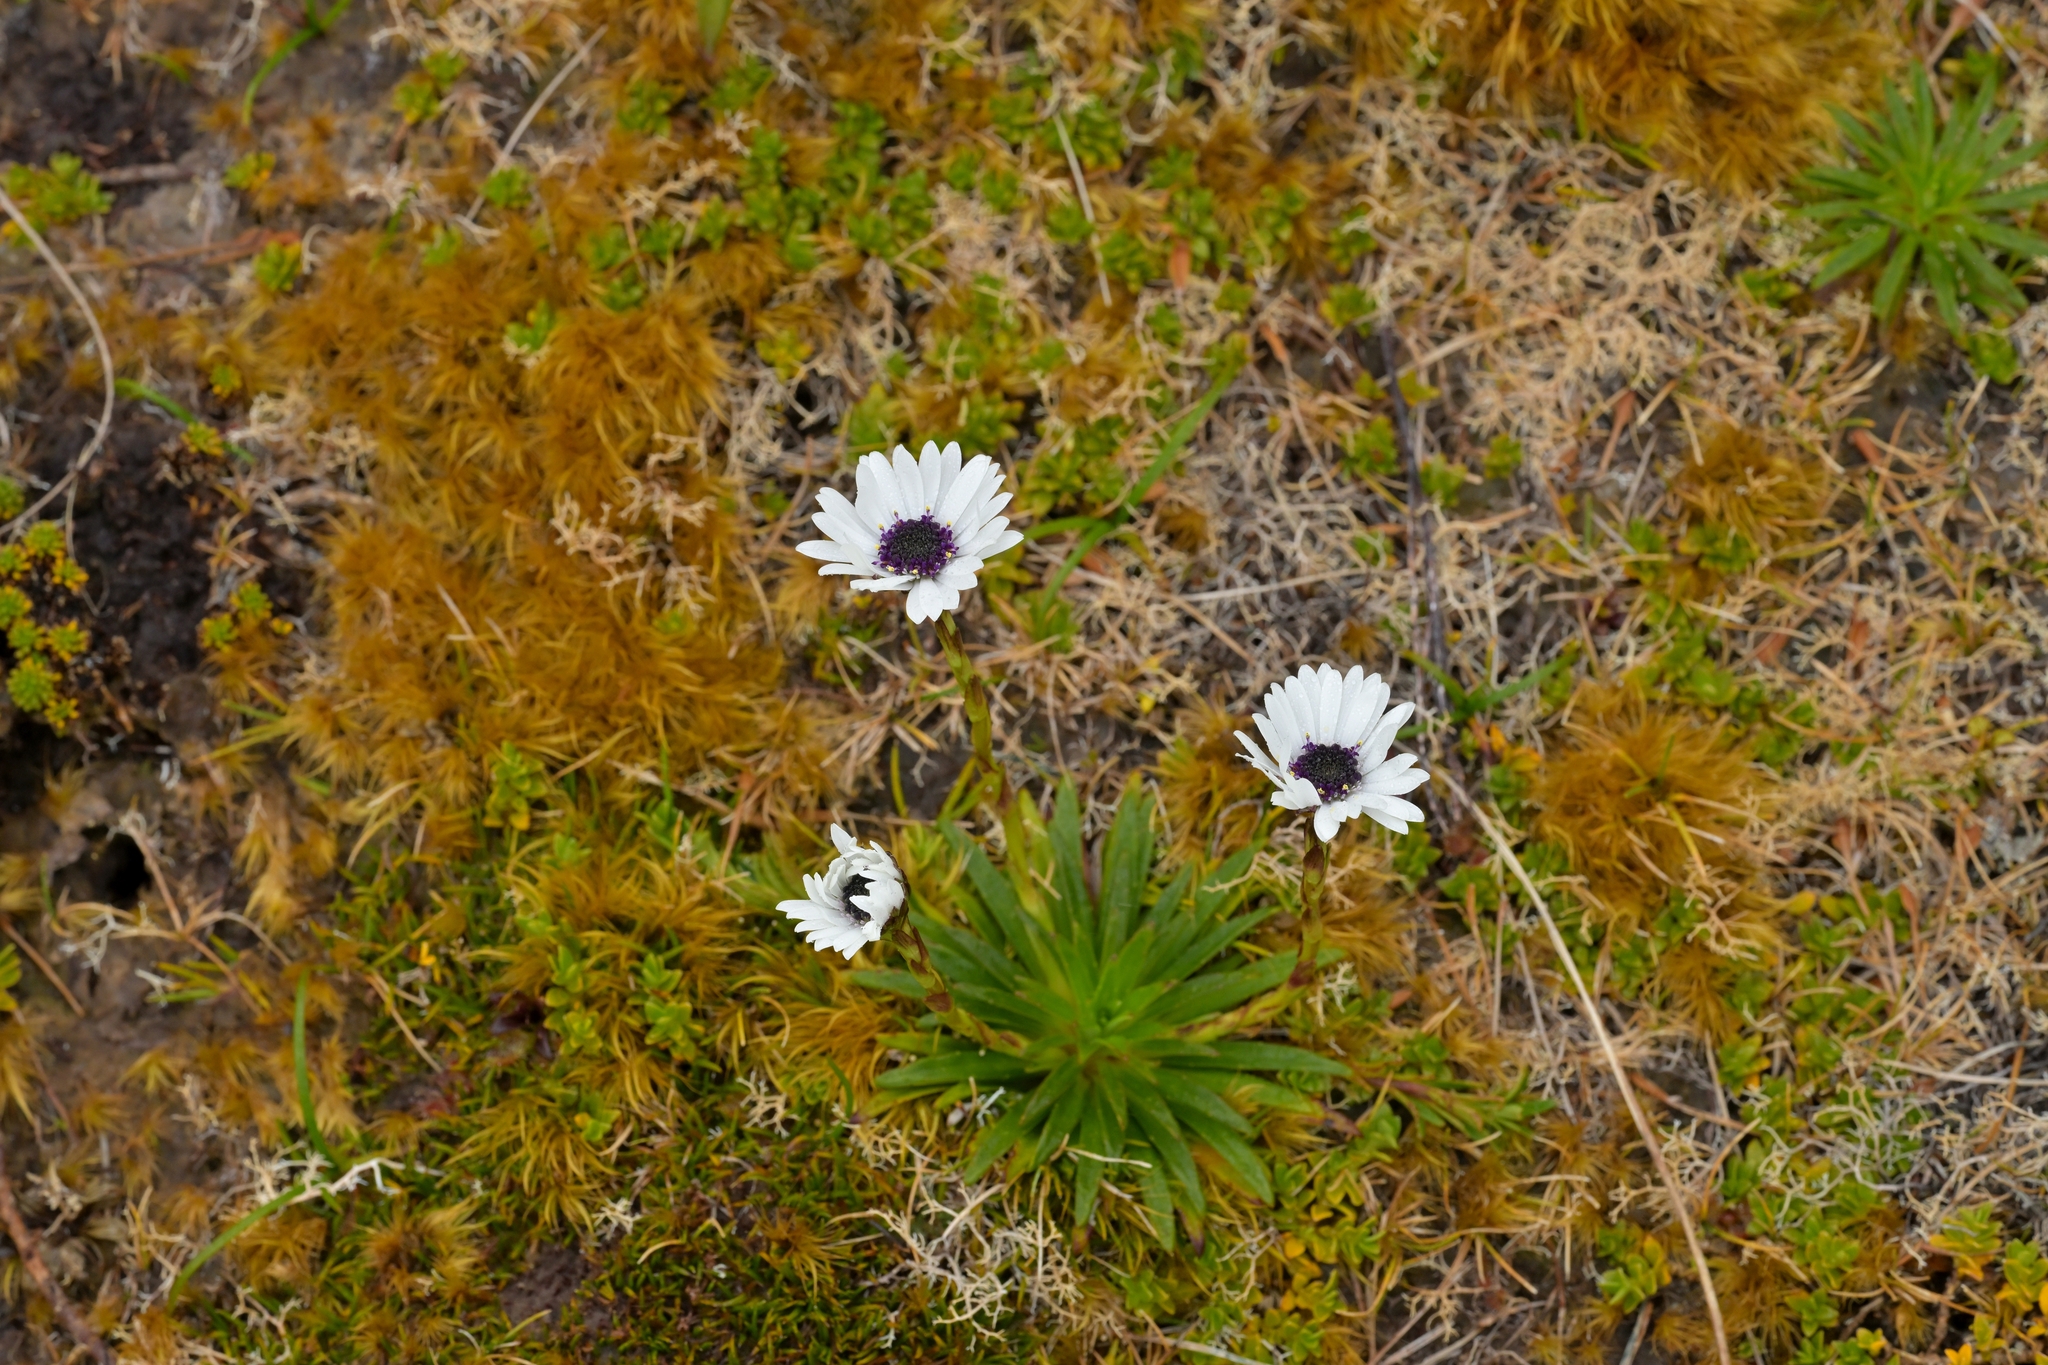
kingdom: Plantae
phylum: Tracheophyta
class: Magnoliopsida
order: Asterales
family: Asteraceae
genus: Damnamenia
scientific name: Damnamenia vernicosa
